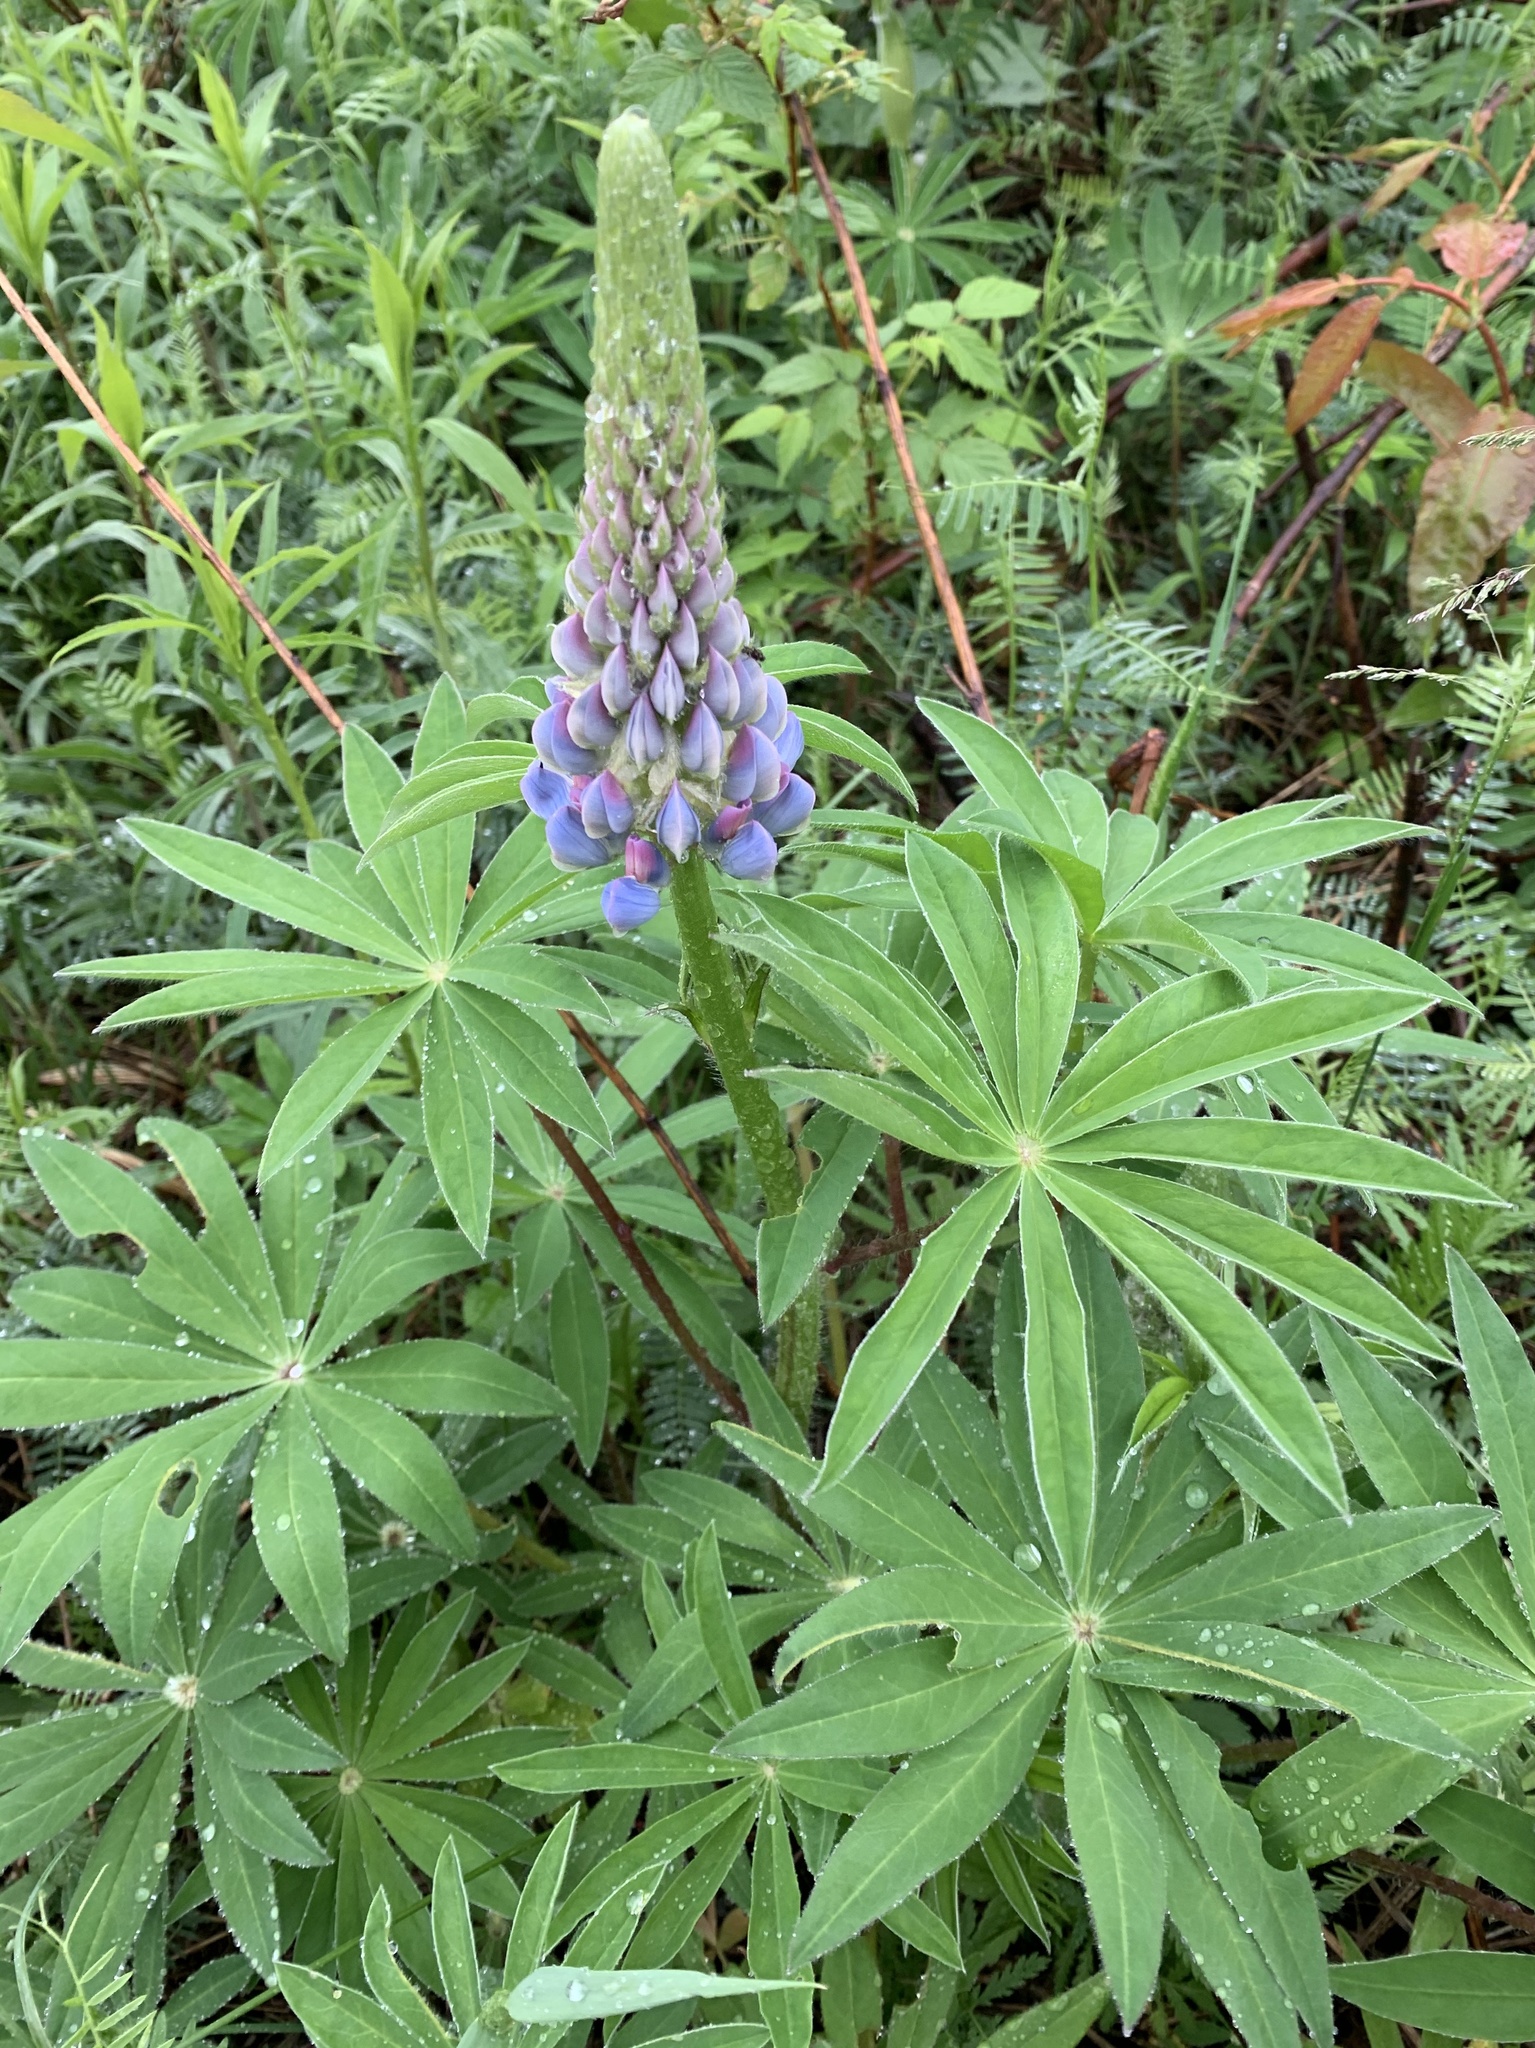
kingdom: Plantae
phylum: Tracheophyta
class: Magnoliopsida
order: Fabales
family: Fabaceae
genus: Lupinus
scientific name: Lupinus polyphyllus
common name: Garden lupin
